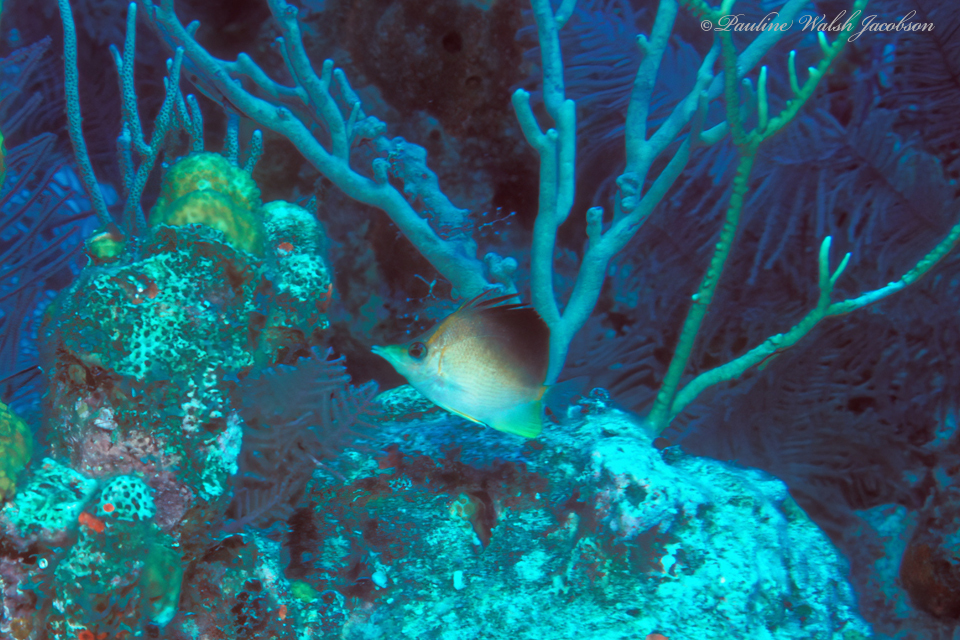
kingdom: Animalia
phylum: Chordata
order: Perciformes
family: Chaetodontidae
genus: Prognathodes
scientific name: Prognathodes aculeatus
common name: Longsnout butterflyfish
